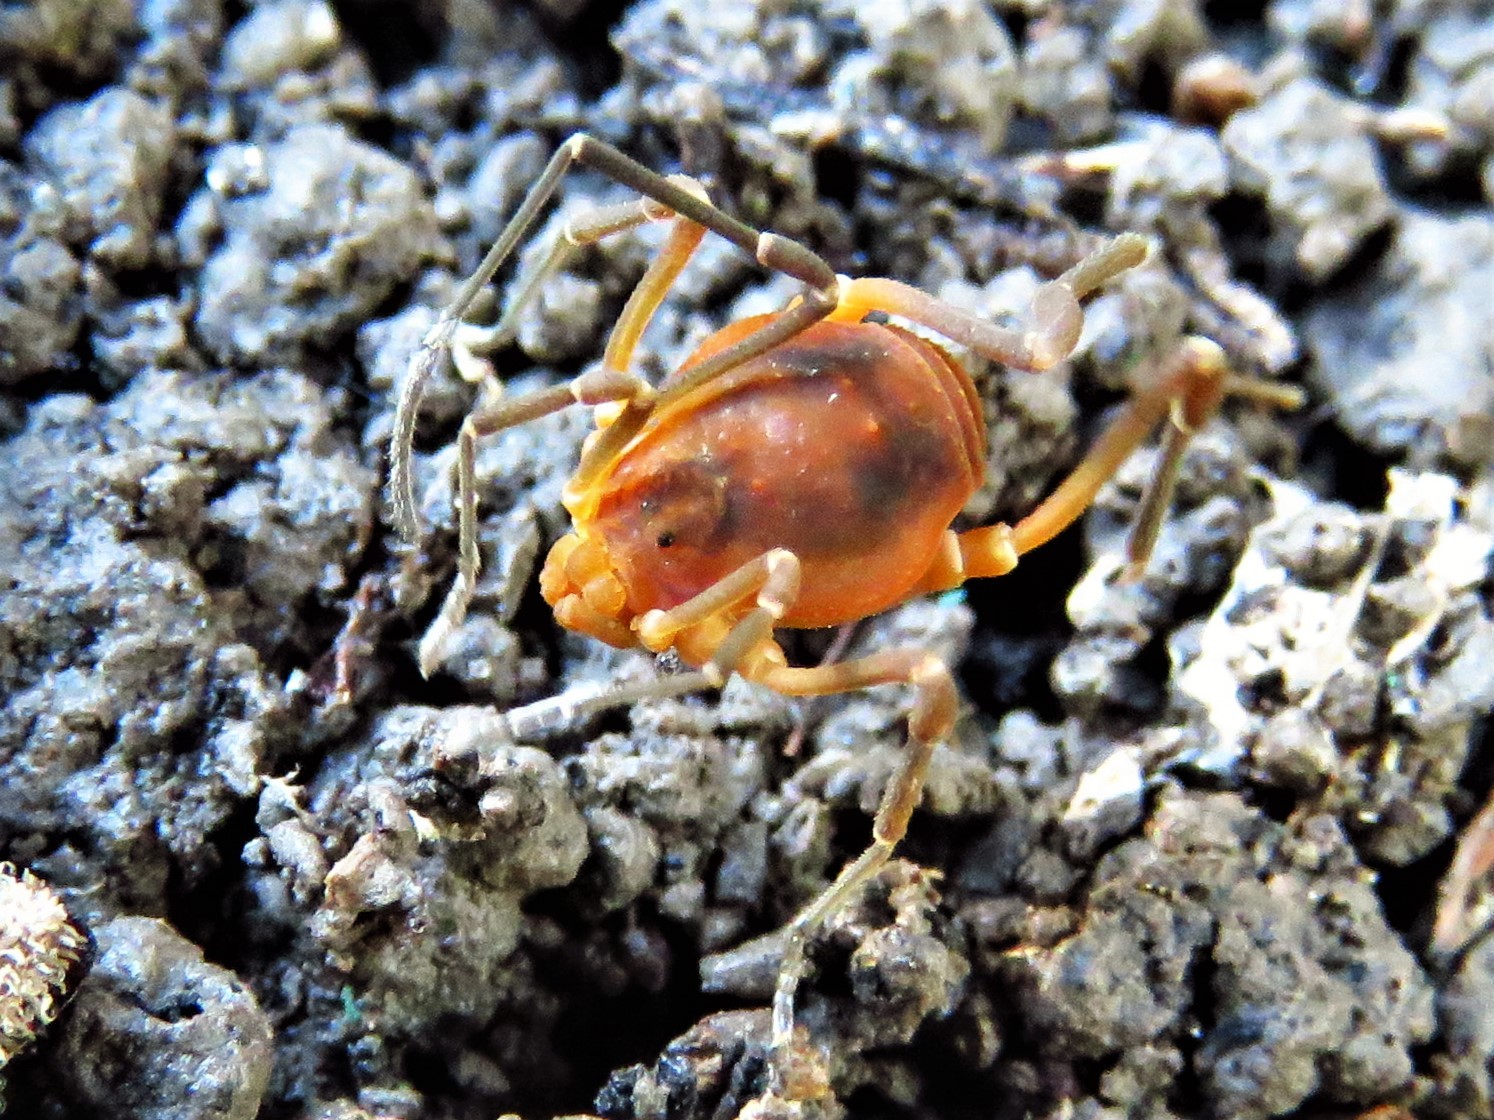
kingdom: Animalia
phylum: Arthropoda
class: Arachnida
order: Opiliones
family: Cosmetidae
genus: Libitioides
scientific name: Libitioides sayi
